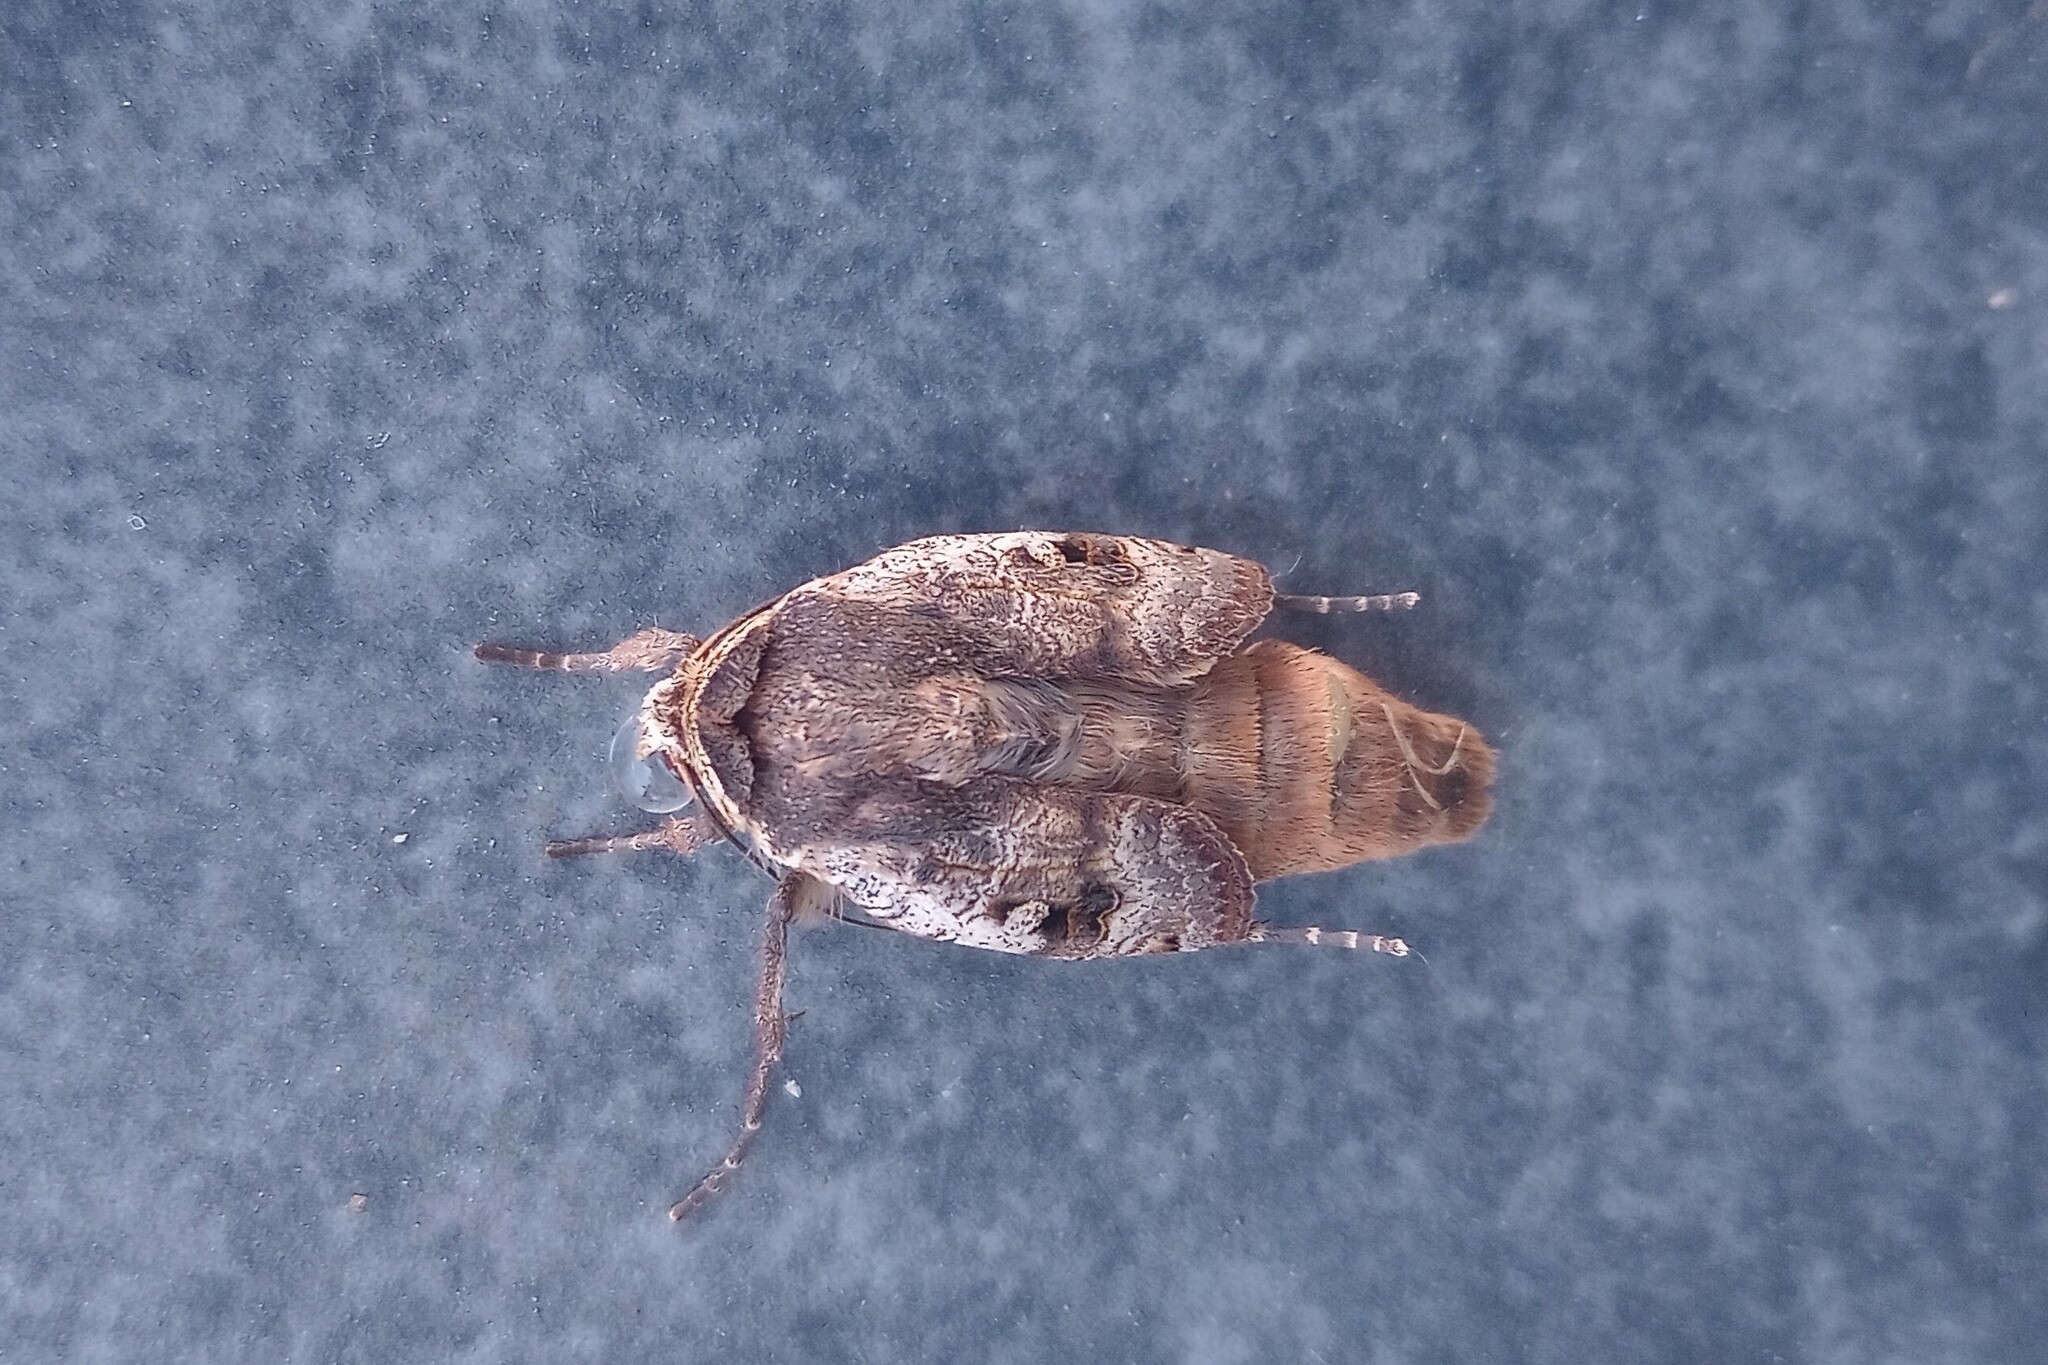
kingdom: Animalia
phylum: Arthropoda
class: Insecta
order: Lepidoptera
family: Noctuidae
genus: Noctua
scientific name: Noctua pronuba
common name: Large yellow underwing
